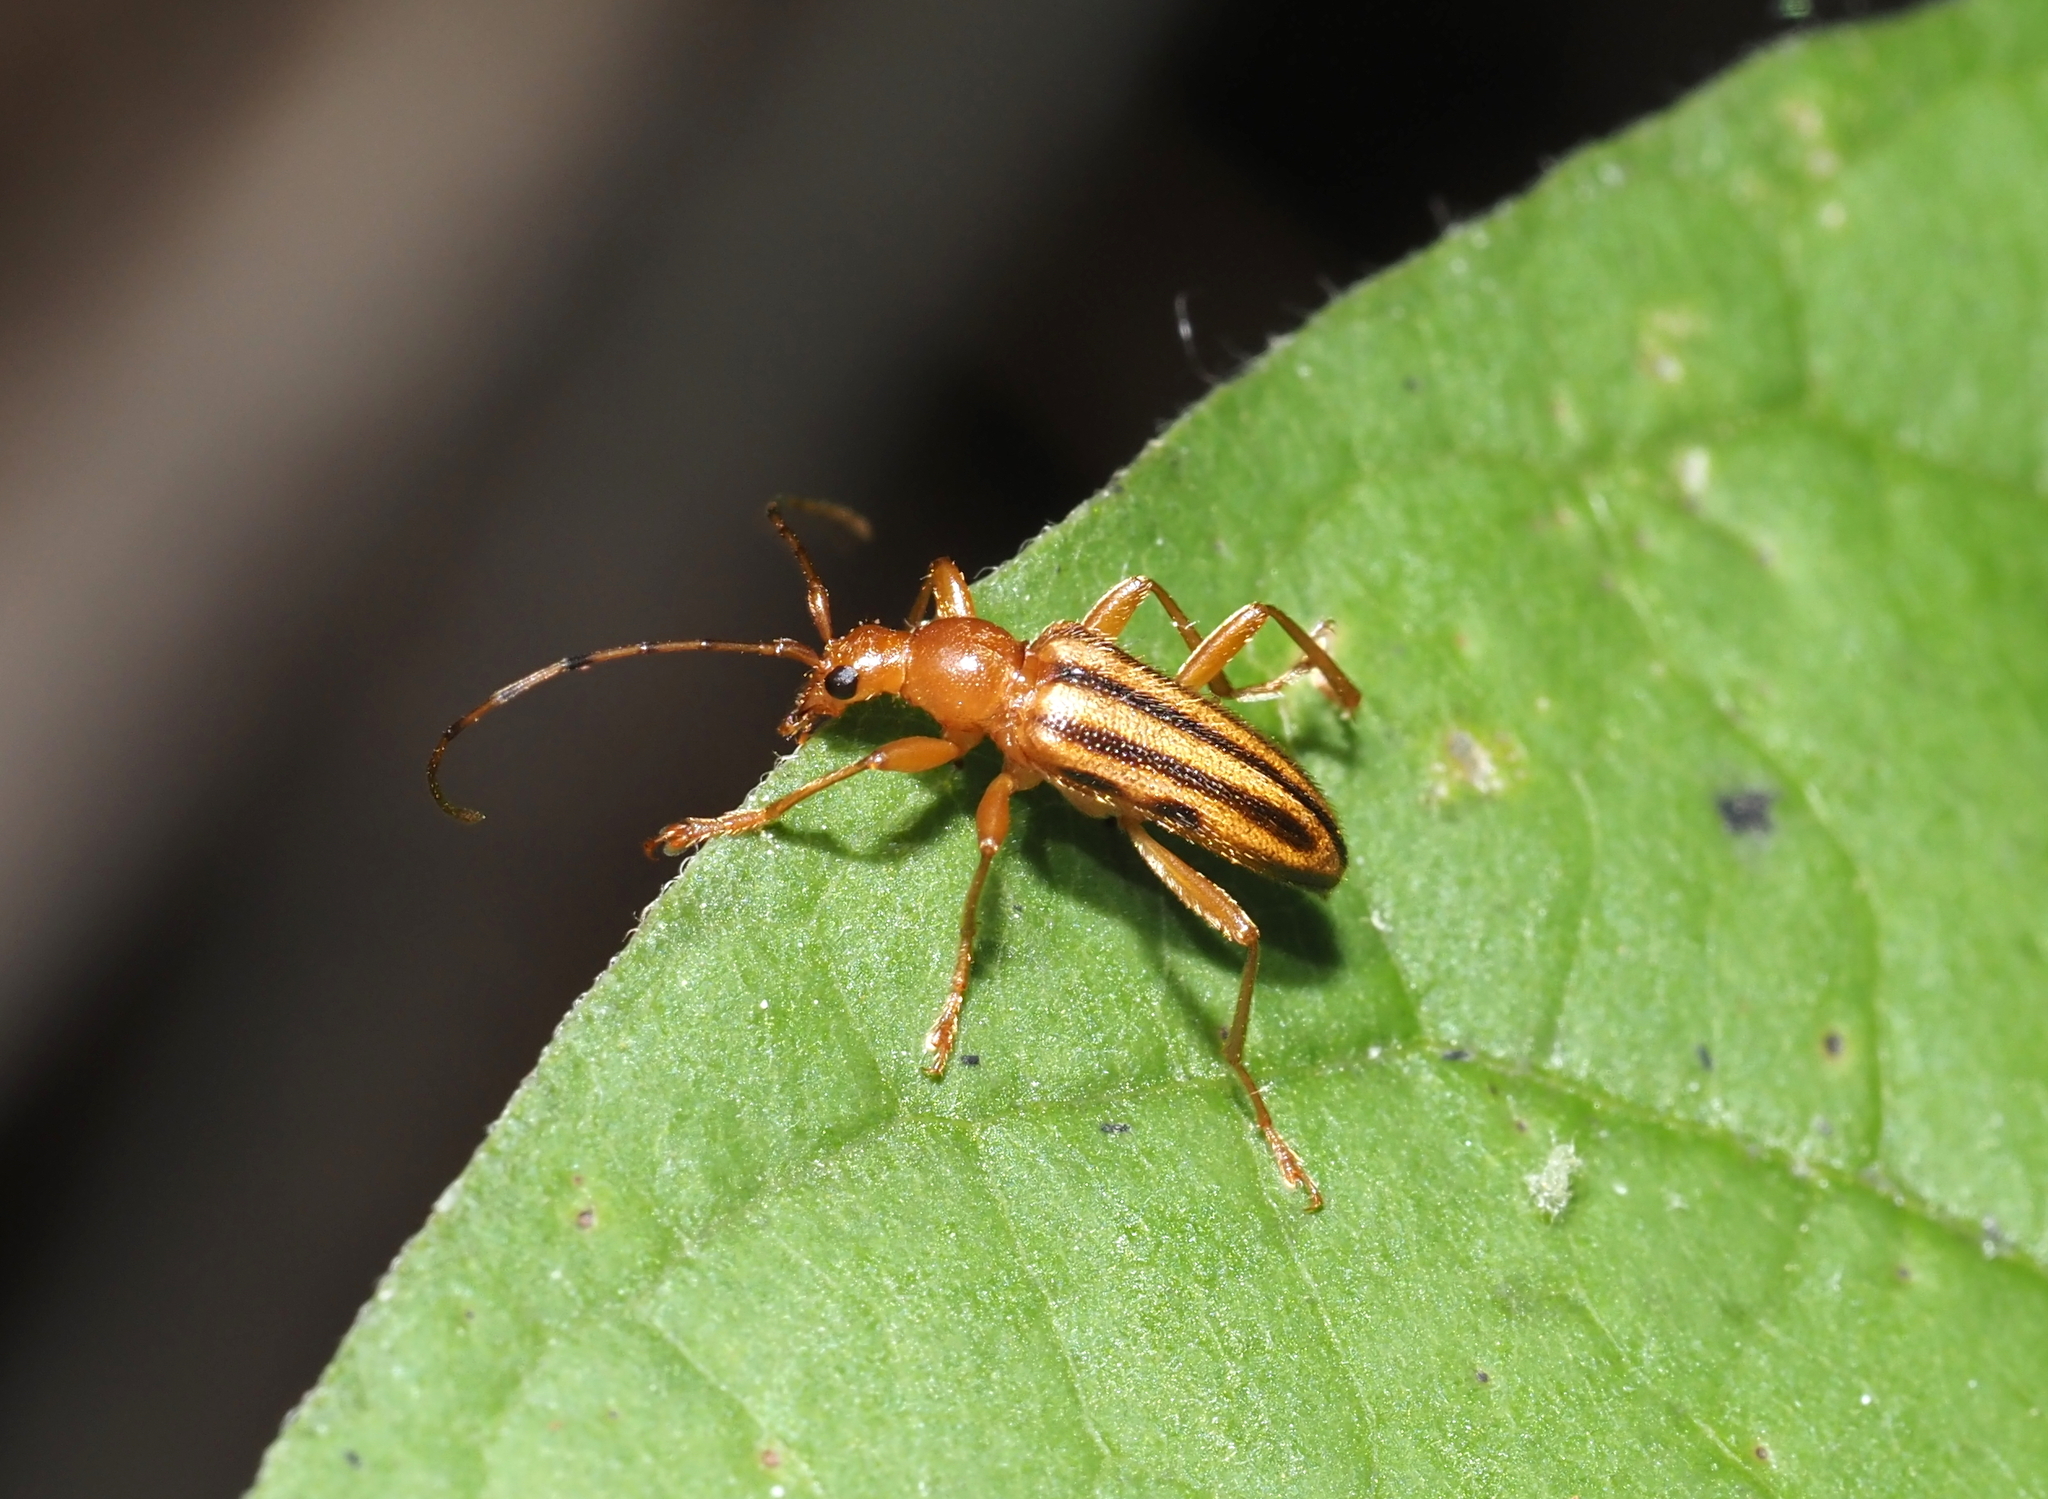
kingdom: Animalia
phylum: Arthropoda
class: Insecta
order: Coleoptera
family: Cerambycidae
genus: Metacmaeops
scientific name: Metacmaeops vittata
